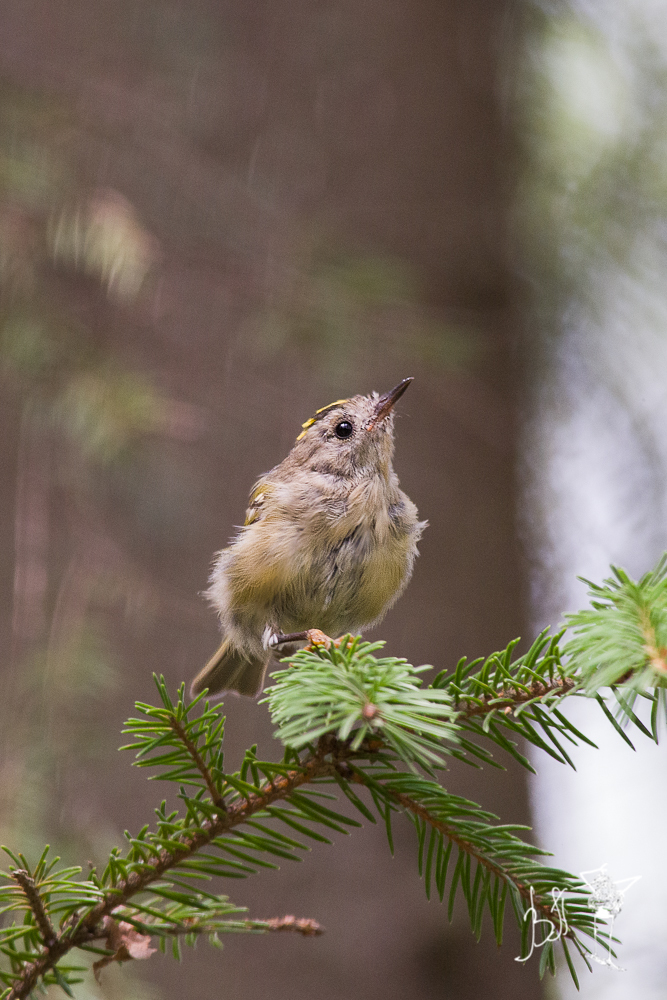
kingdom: Animalia
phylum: Chordata
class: Aves
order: Passeriformes
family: Regulidae
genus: Regulus
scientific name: Regulus regulus
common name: Goldcrest
